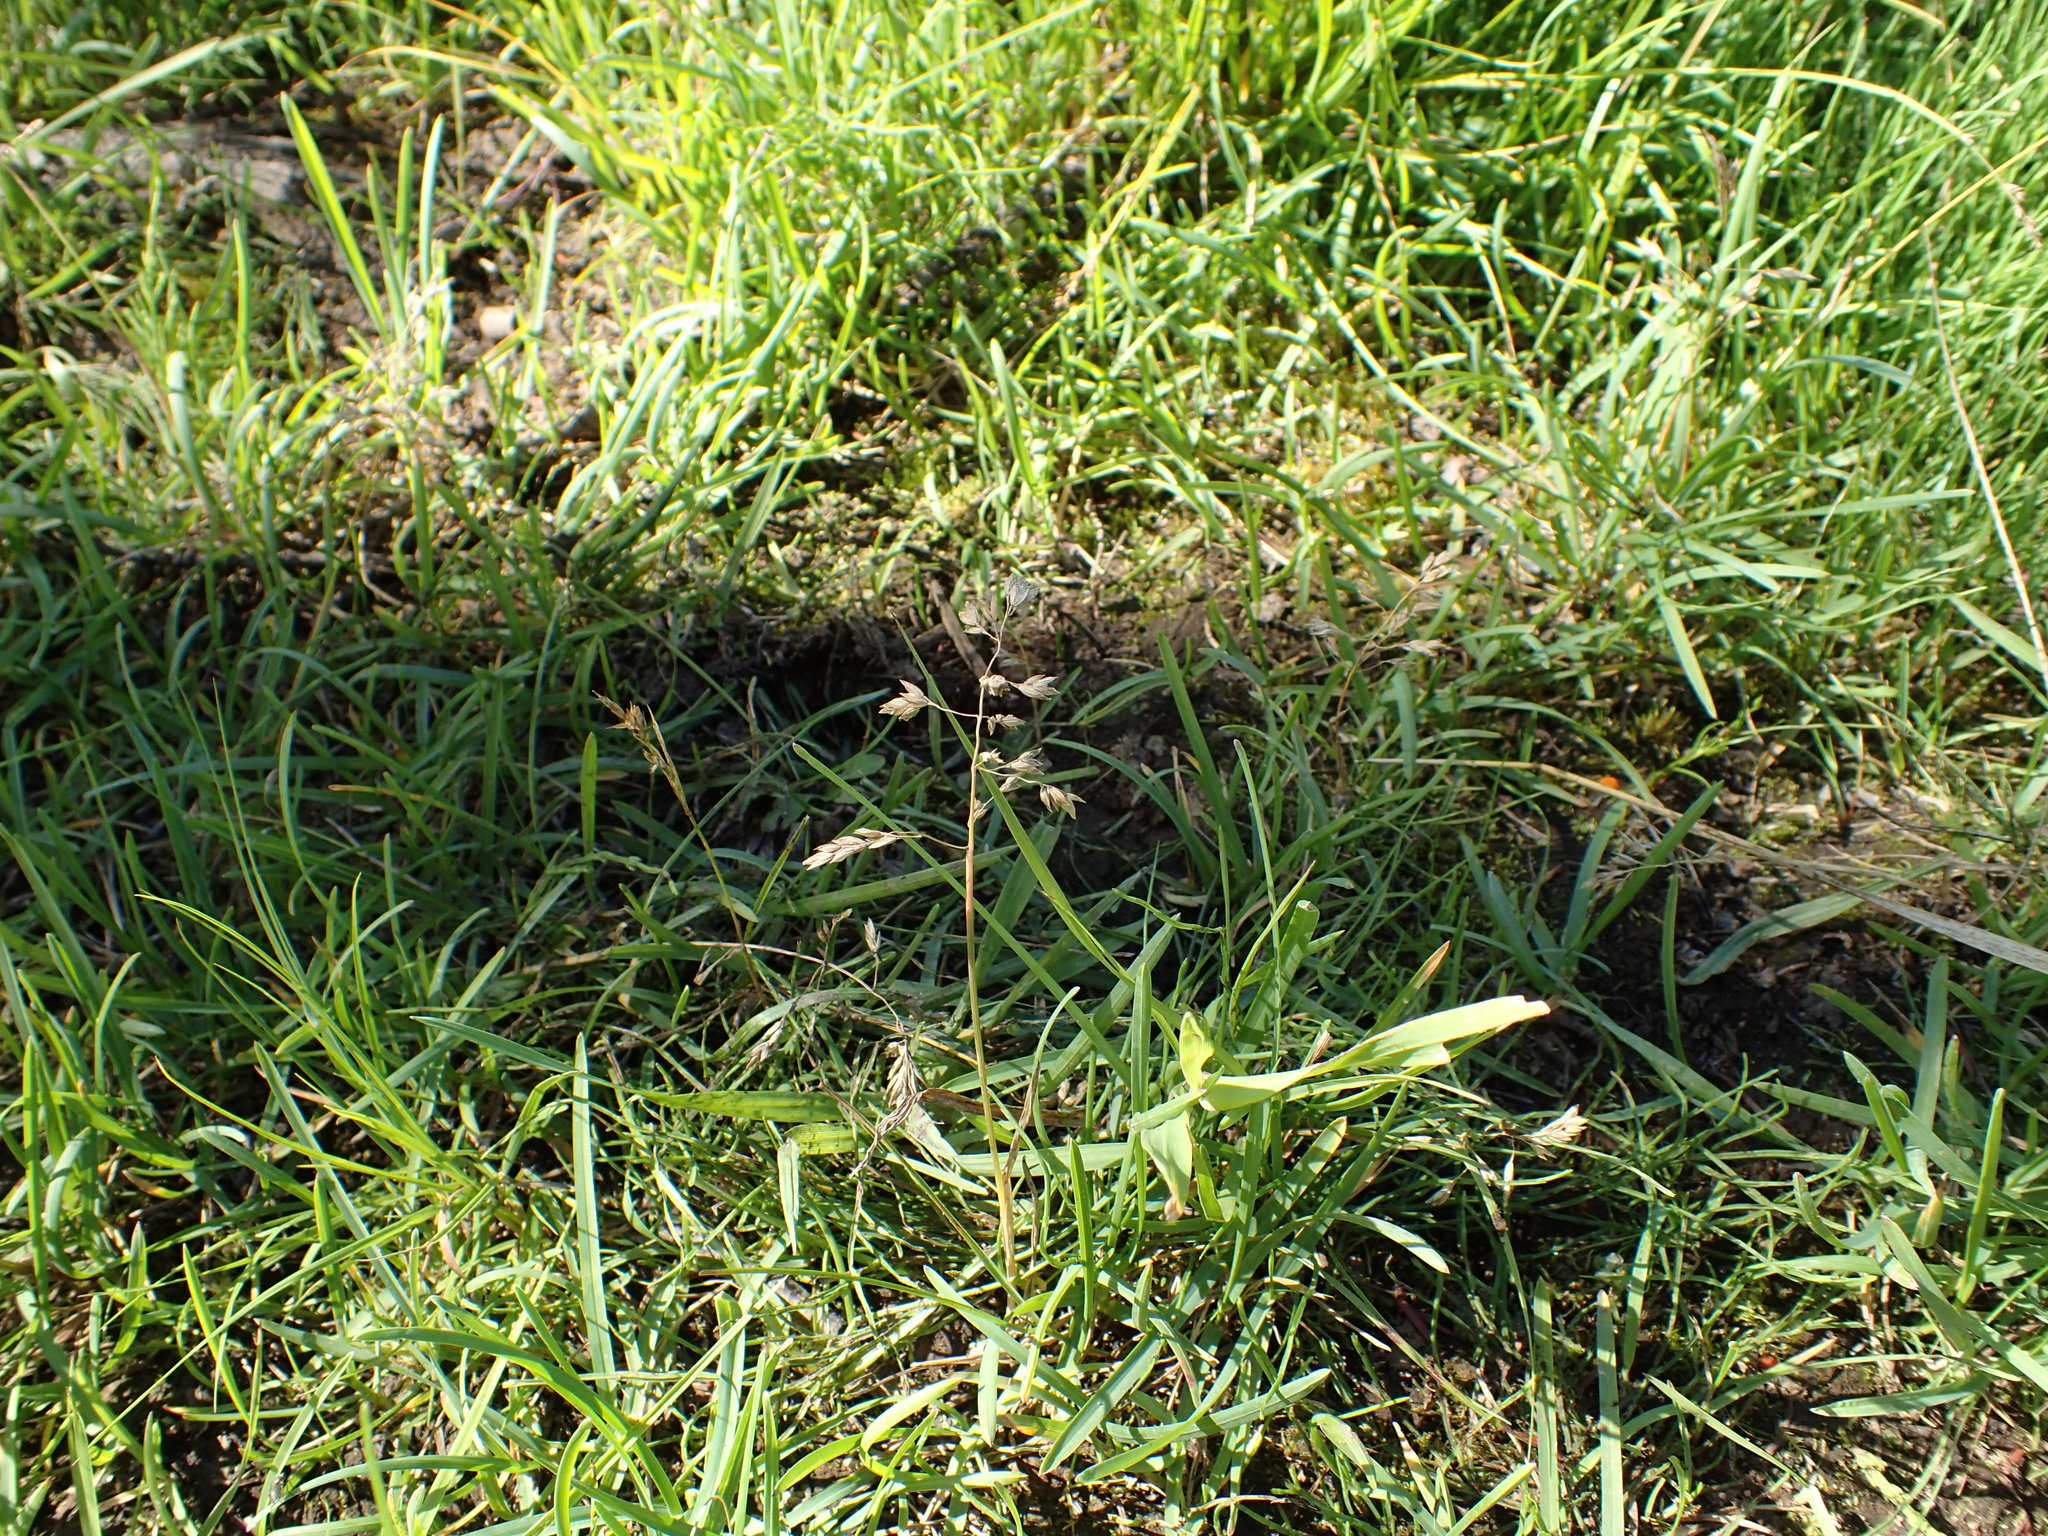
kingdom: Plantae
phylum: Tracheophyta
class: Liliopsida
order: Poales
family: Poaceae
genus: Poa
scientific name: Poa annua
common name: Annual bluegrass
